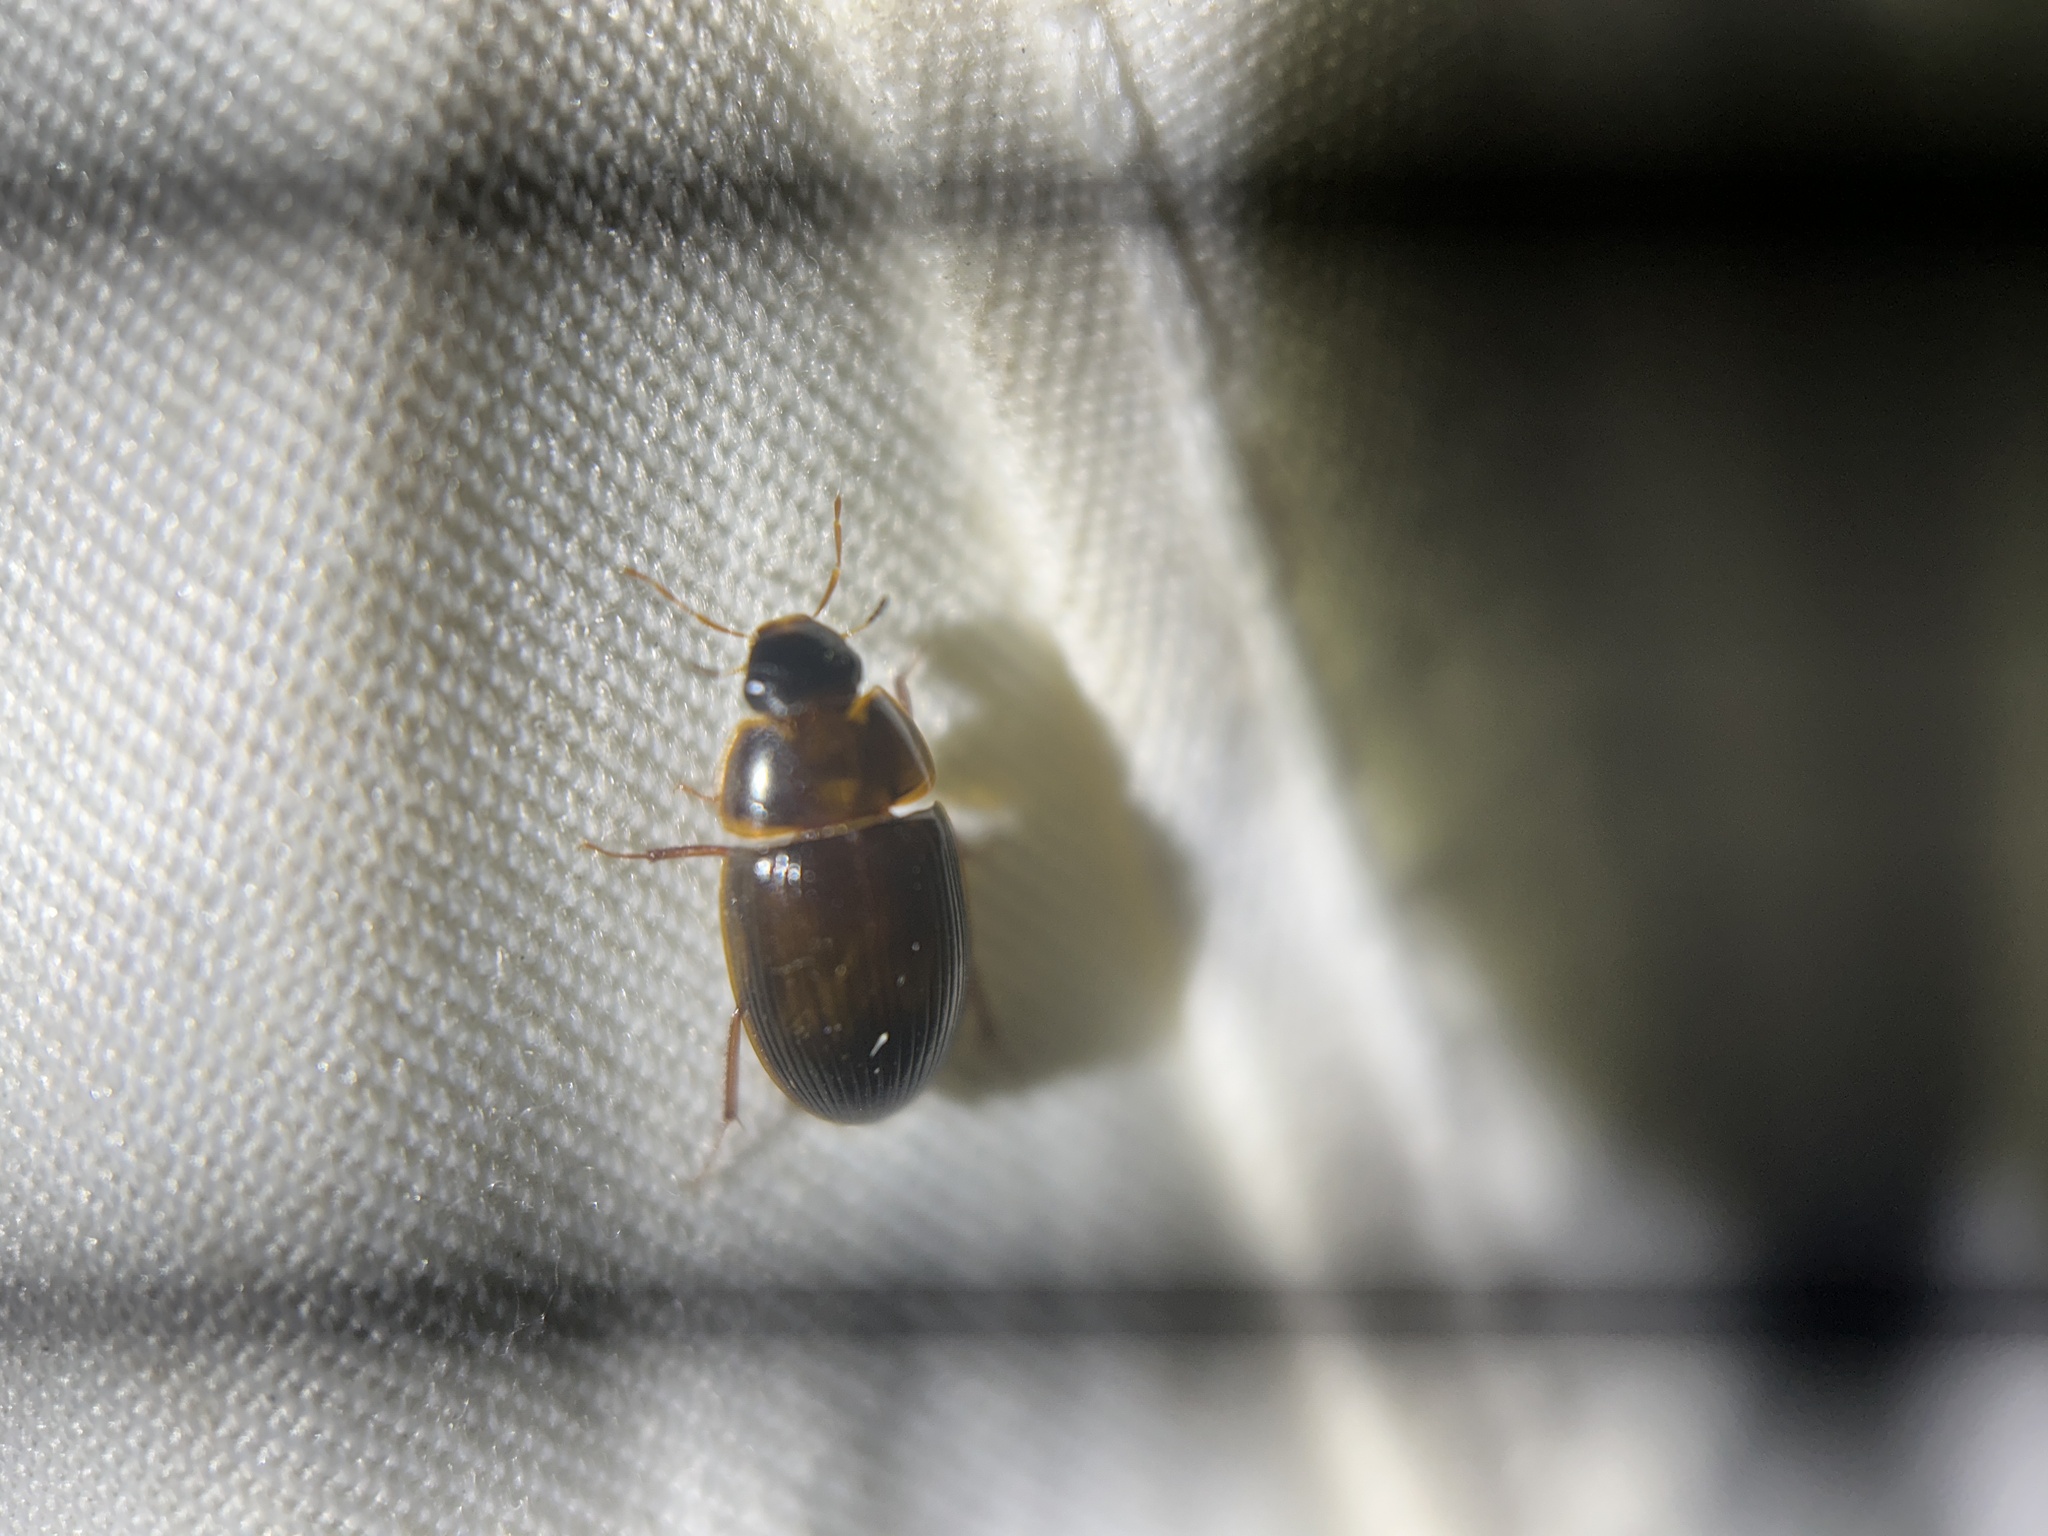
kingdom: Animalia
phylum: Arthropoda
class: Insecta
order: Coleoptera
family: Hydrophilidae
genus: Cymbiodyta
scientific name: Cymbiodyta bifida
